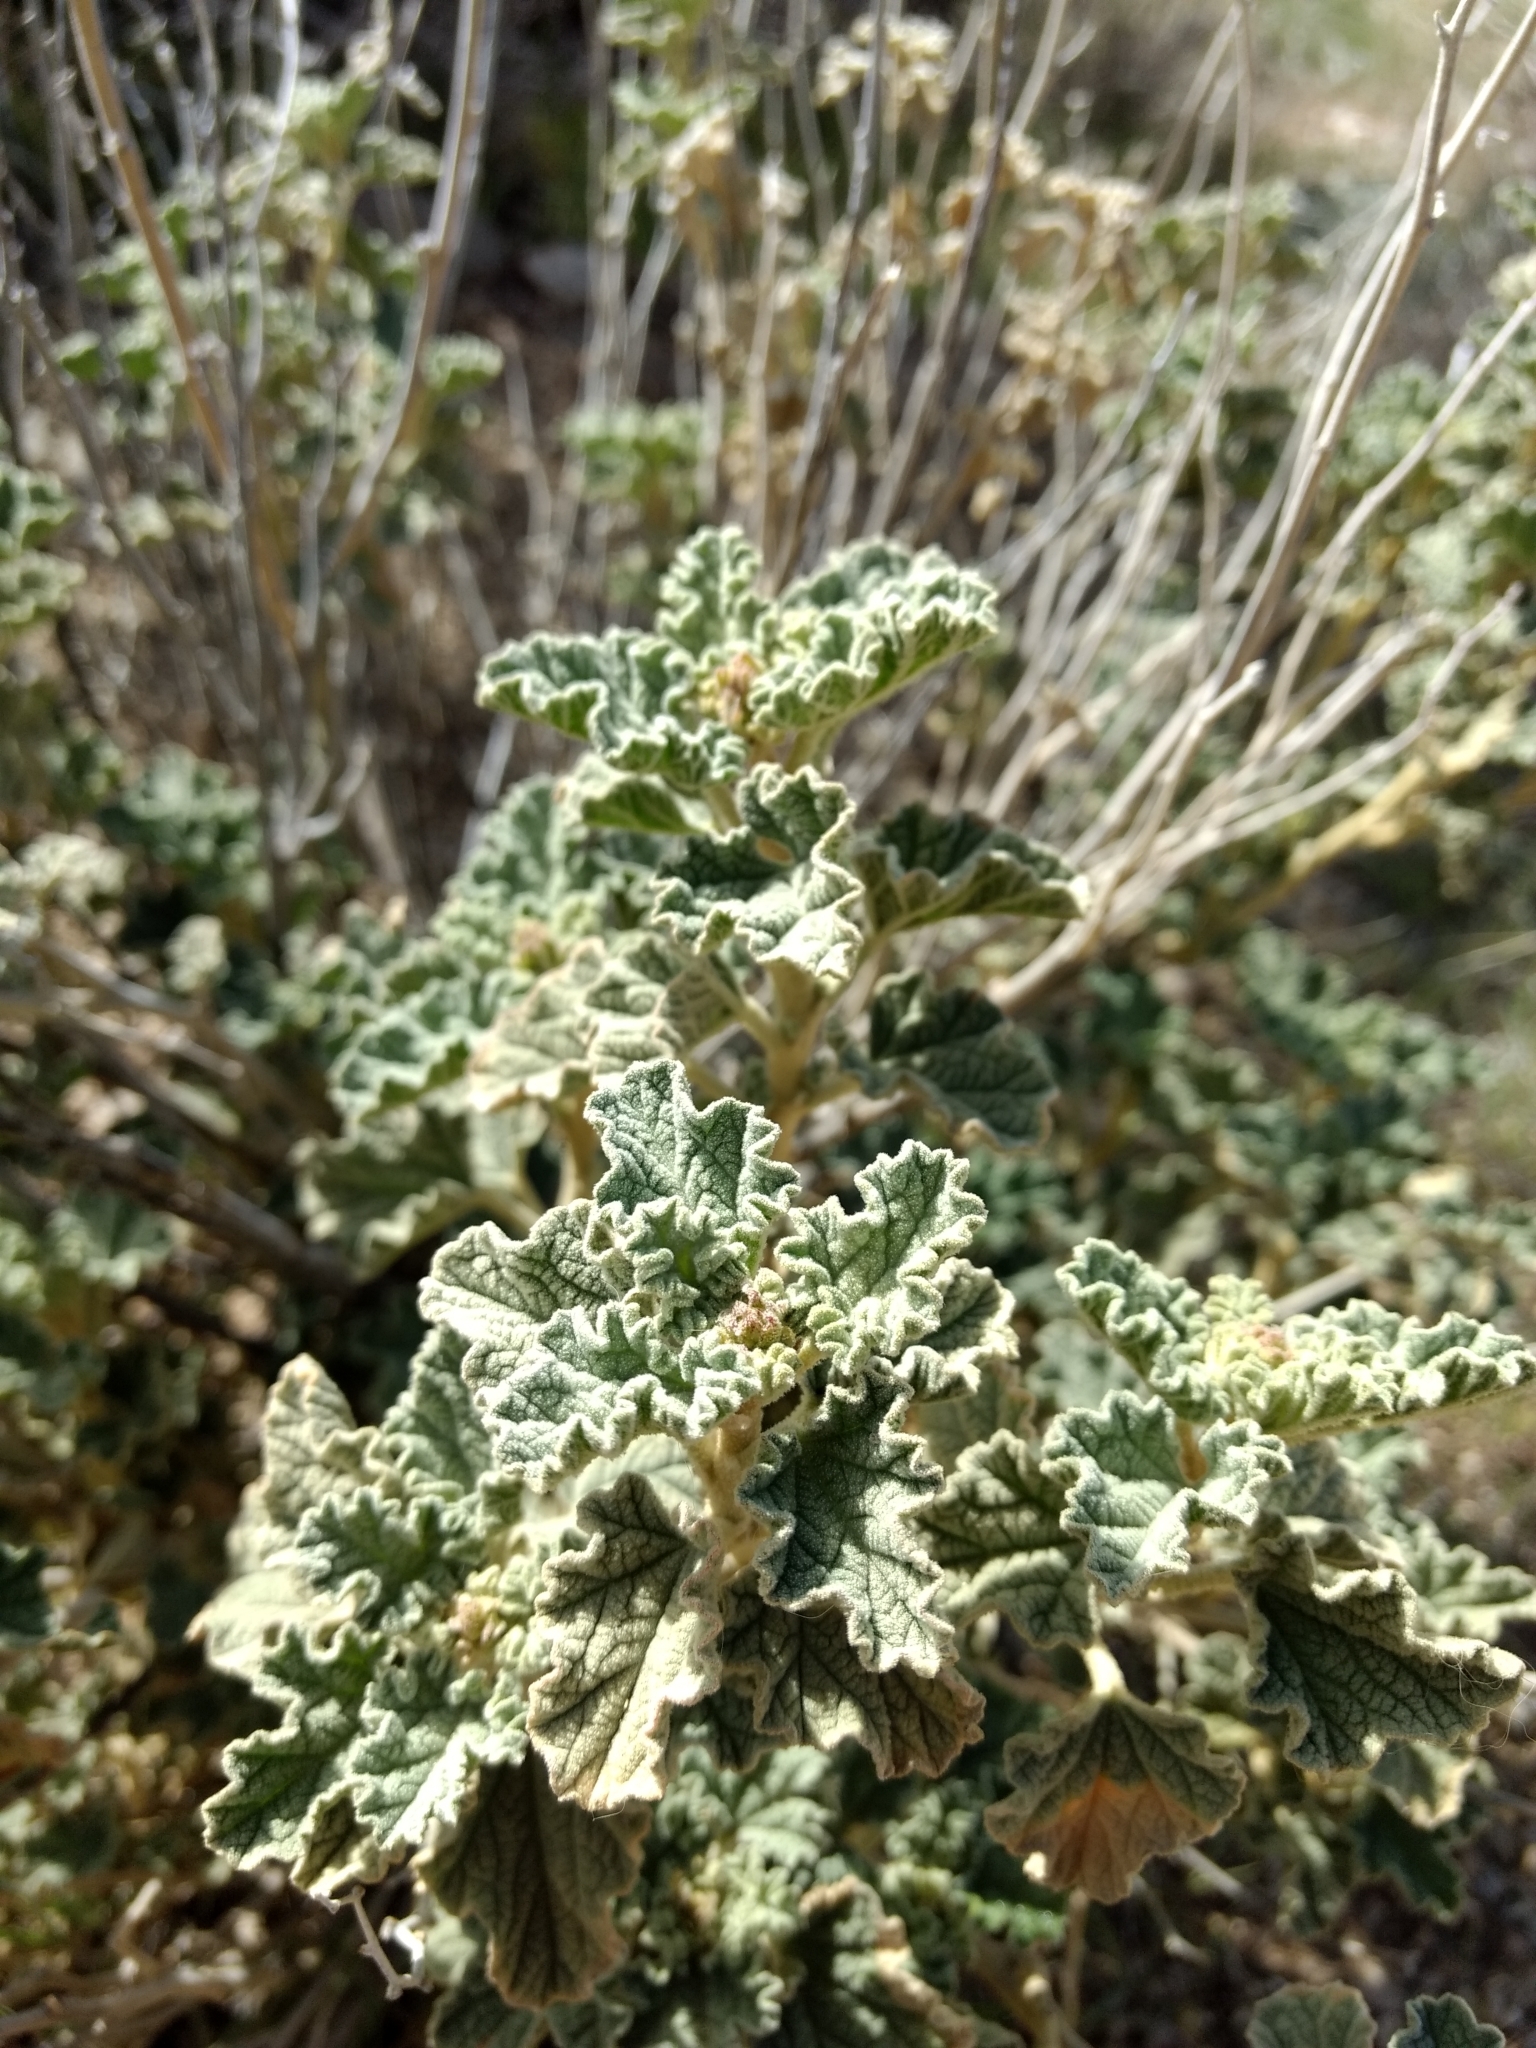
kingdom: Plantae
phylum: Tracheophyta
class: Magnoliopsida
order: Malvales
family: Malvaceae
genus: Sphaeralcea
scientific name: Sphaeralcea ambigua
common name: Apricot globe-mallow
